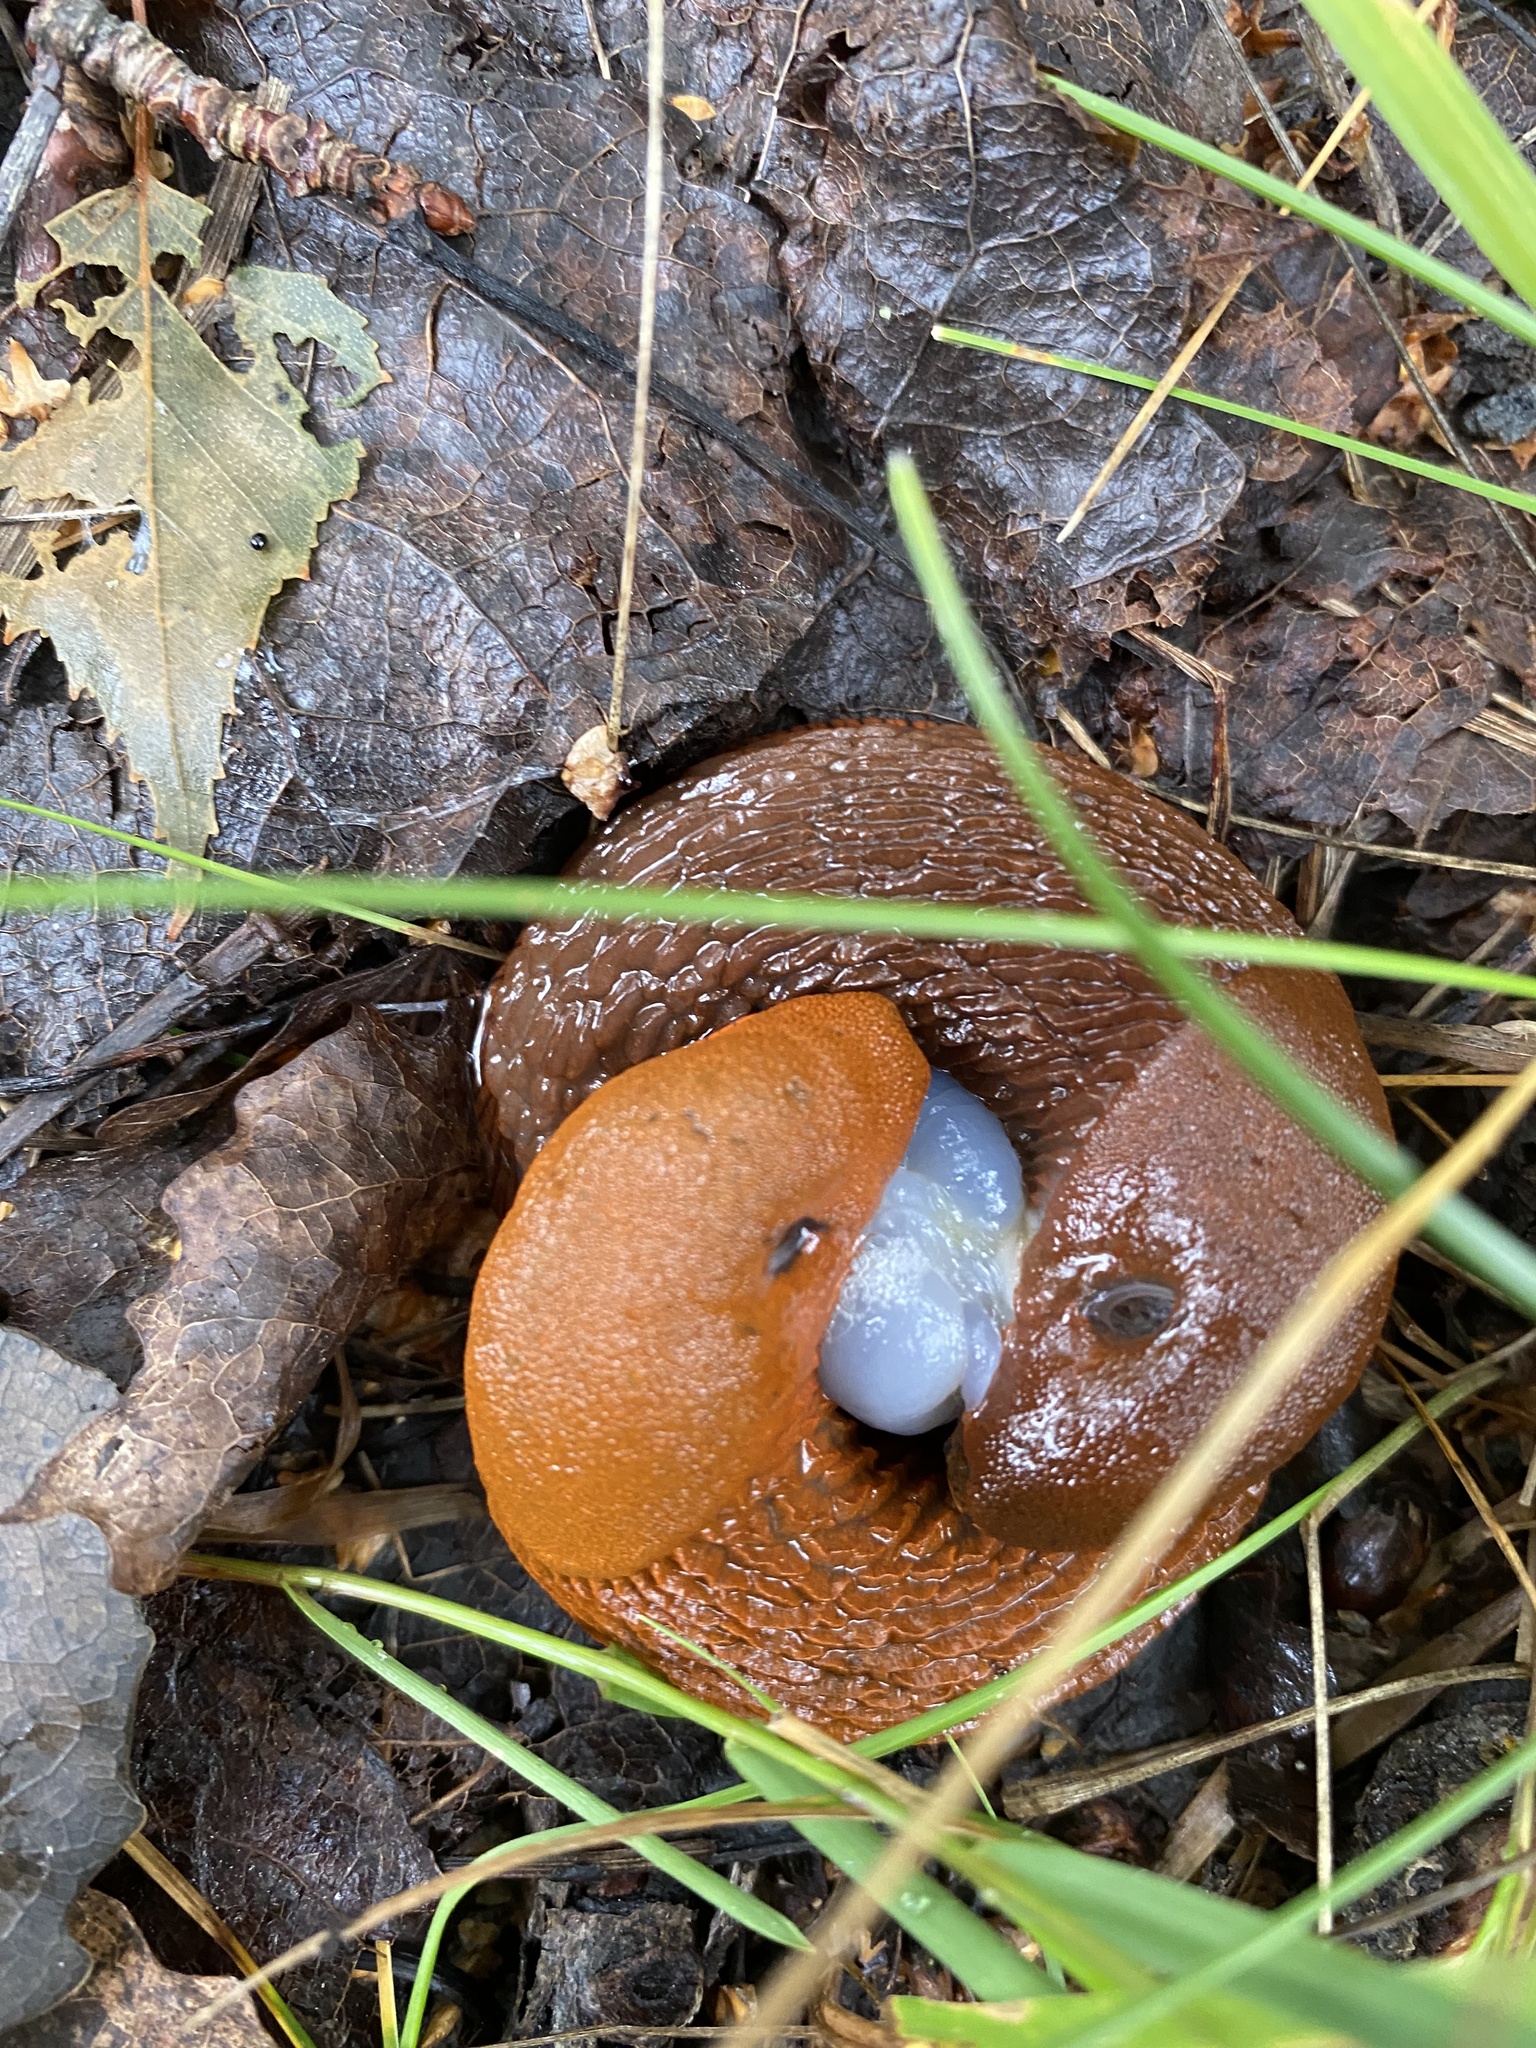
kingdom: Animalia
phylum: Mollusca
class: Gastropoda
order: Stylommatophora
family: Arionidae
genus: Arion
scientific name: Arion vulgaris
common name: Lusitanian slug
